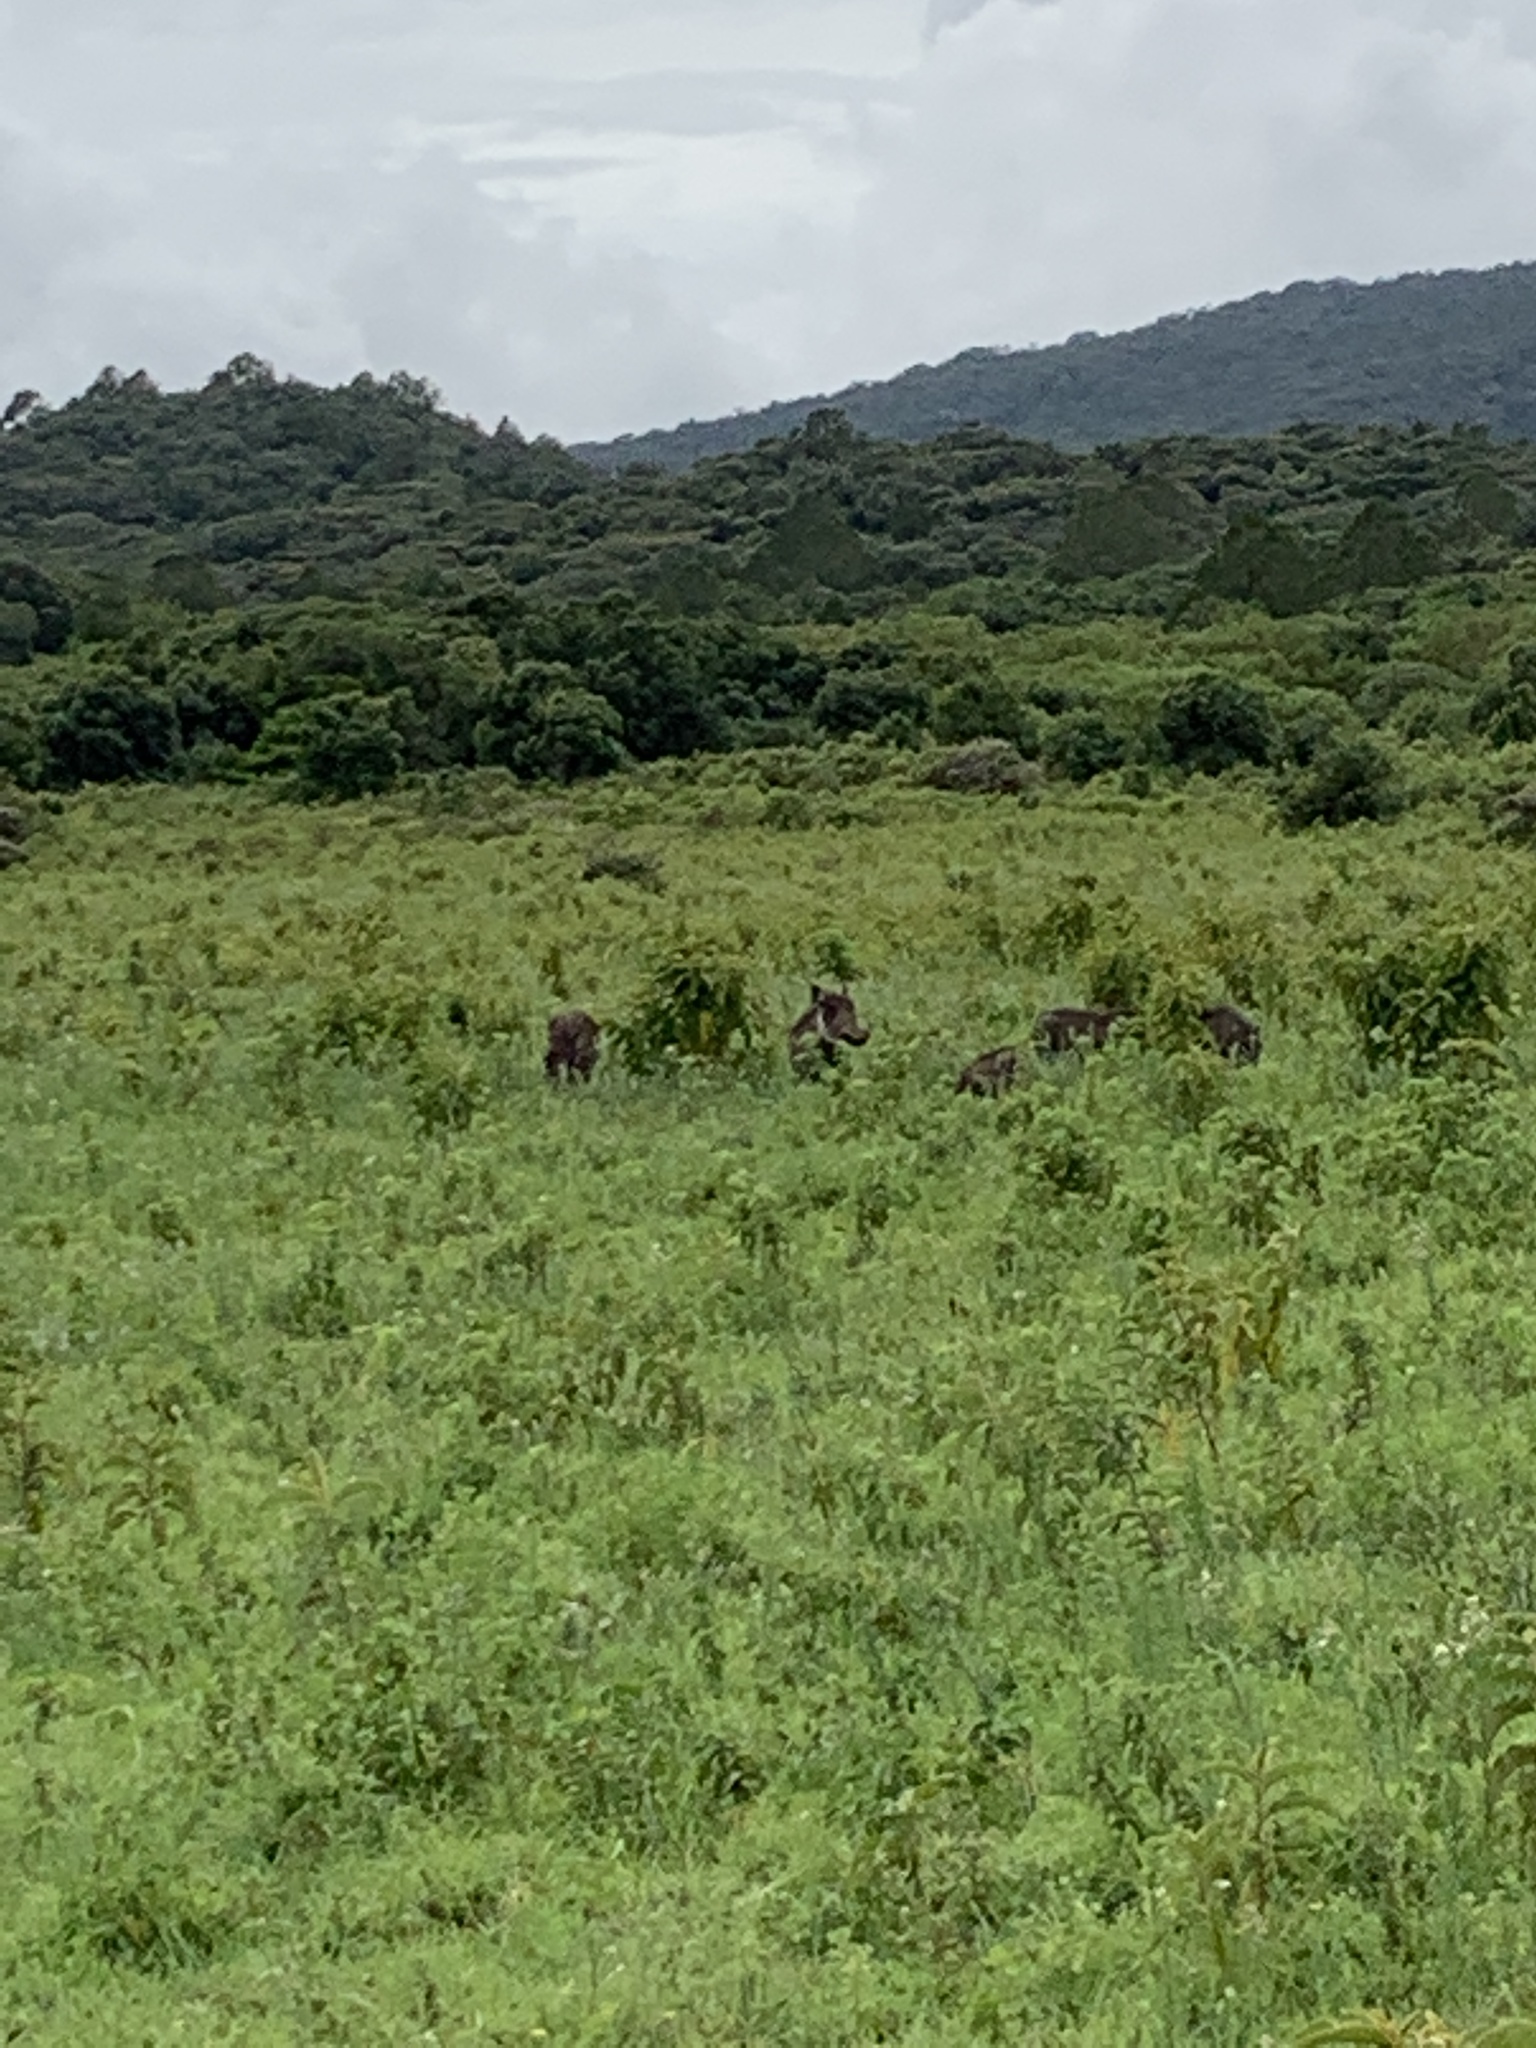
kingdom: Animalia
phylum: Chordata
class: Mammalia
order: Artiodactyla
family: Suidae
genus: Phacochoerus
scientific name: Phacochoerus africanus
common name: Common warthog
